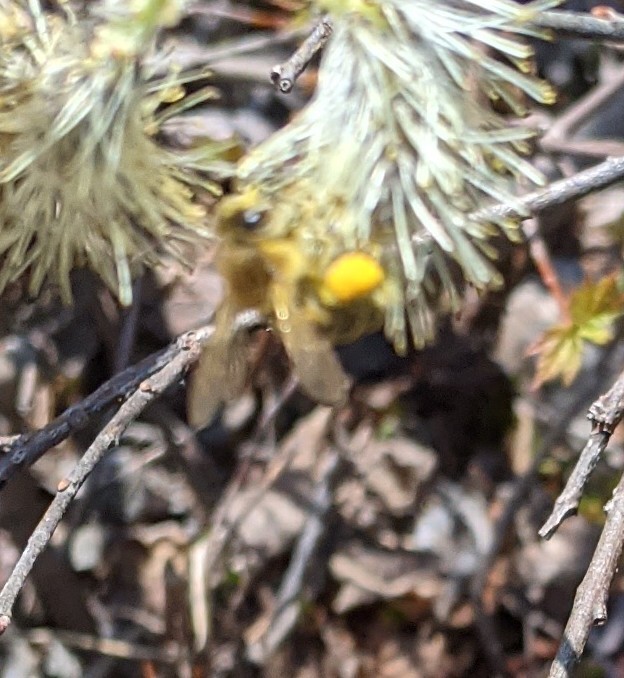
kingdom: Animalia
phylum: Arthropoda
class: Insecta
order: Hymenoptera
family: Apidae
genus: Apis
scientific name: Apis mellifera
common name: Honey bee
